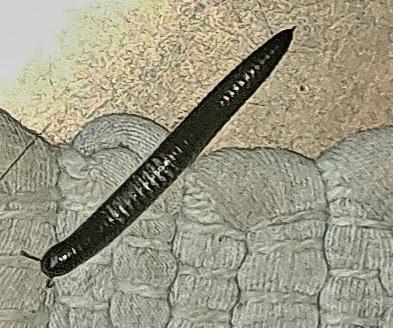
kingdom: Animalia
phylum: Arthropoda
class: Diplopoda
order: Julida
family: Julidae
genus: Ommatoiulus
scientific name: Ommatoiulus moreleti
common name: Portuguese millipede
